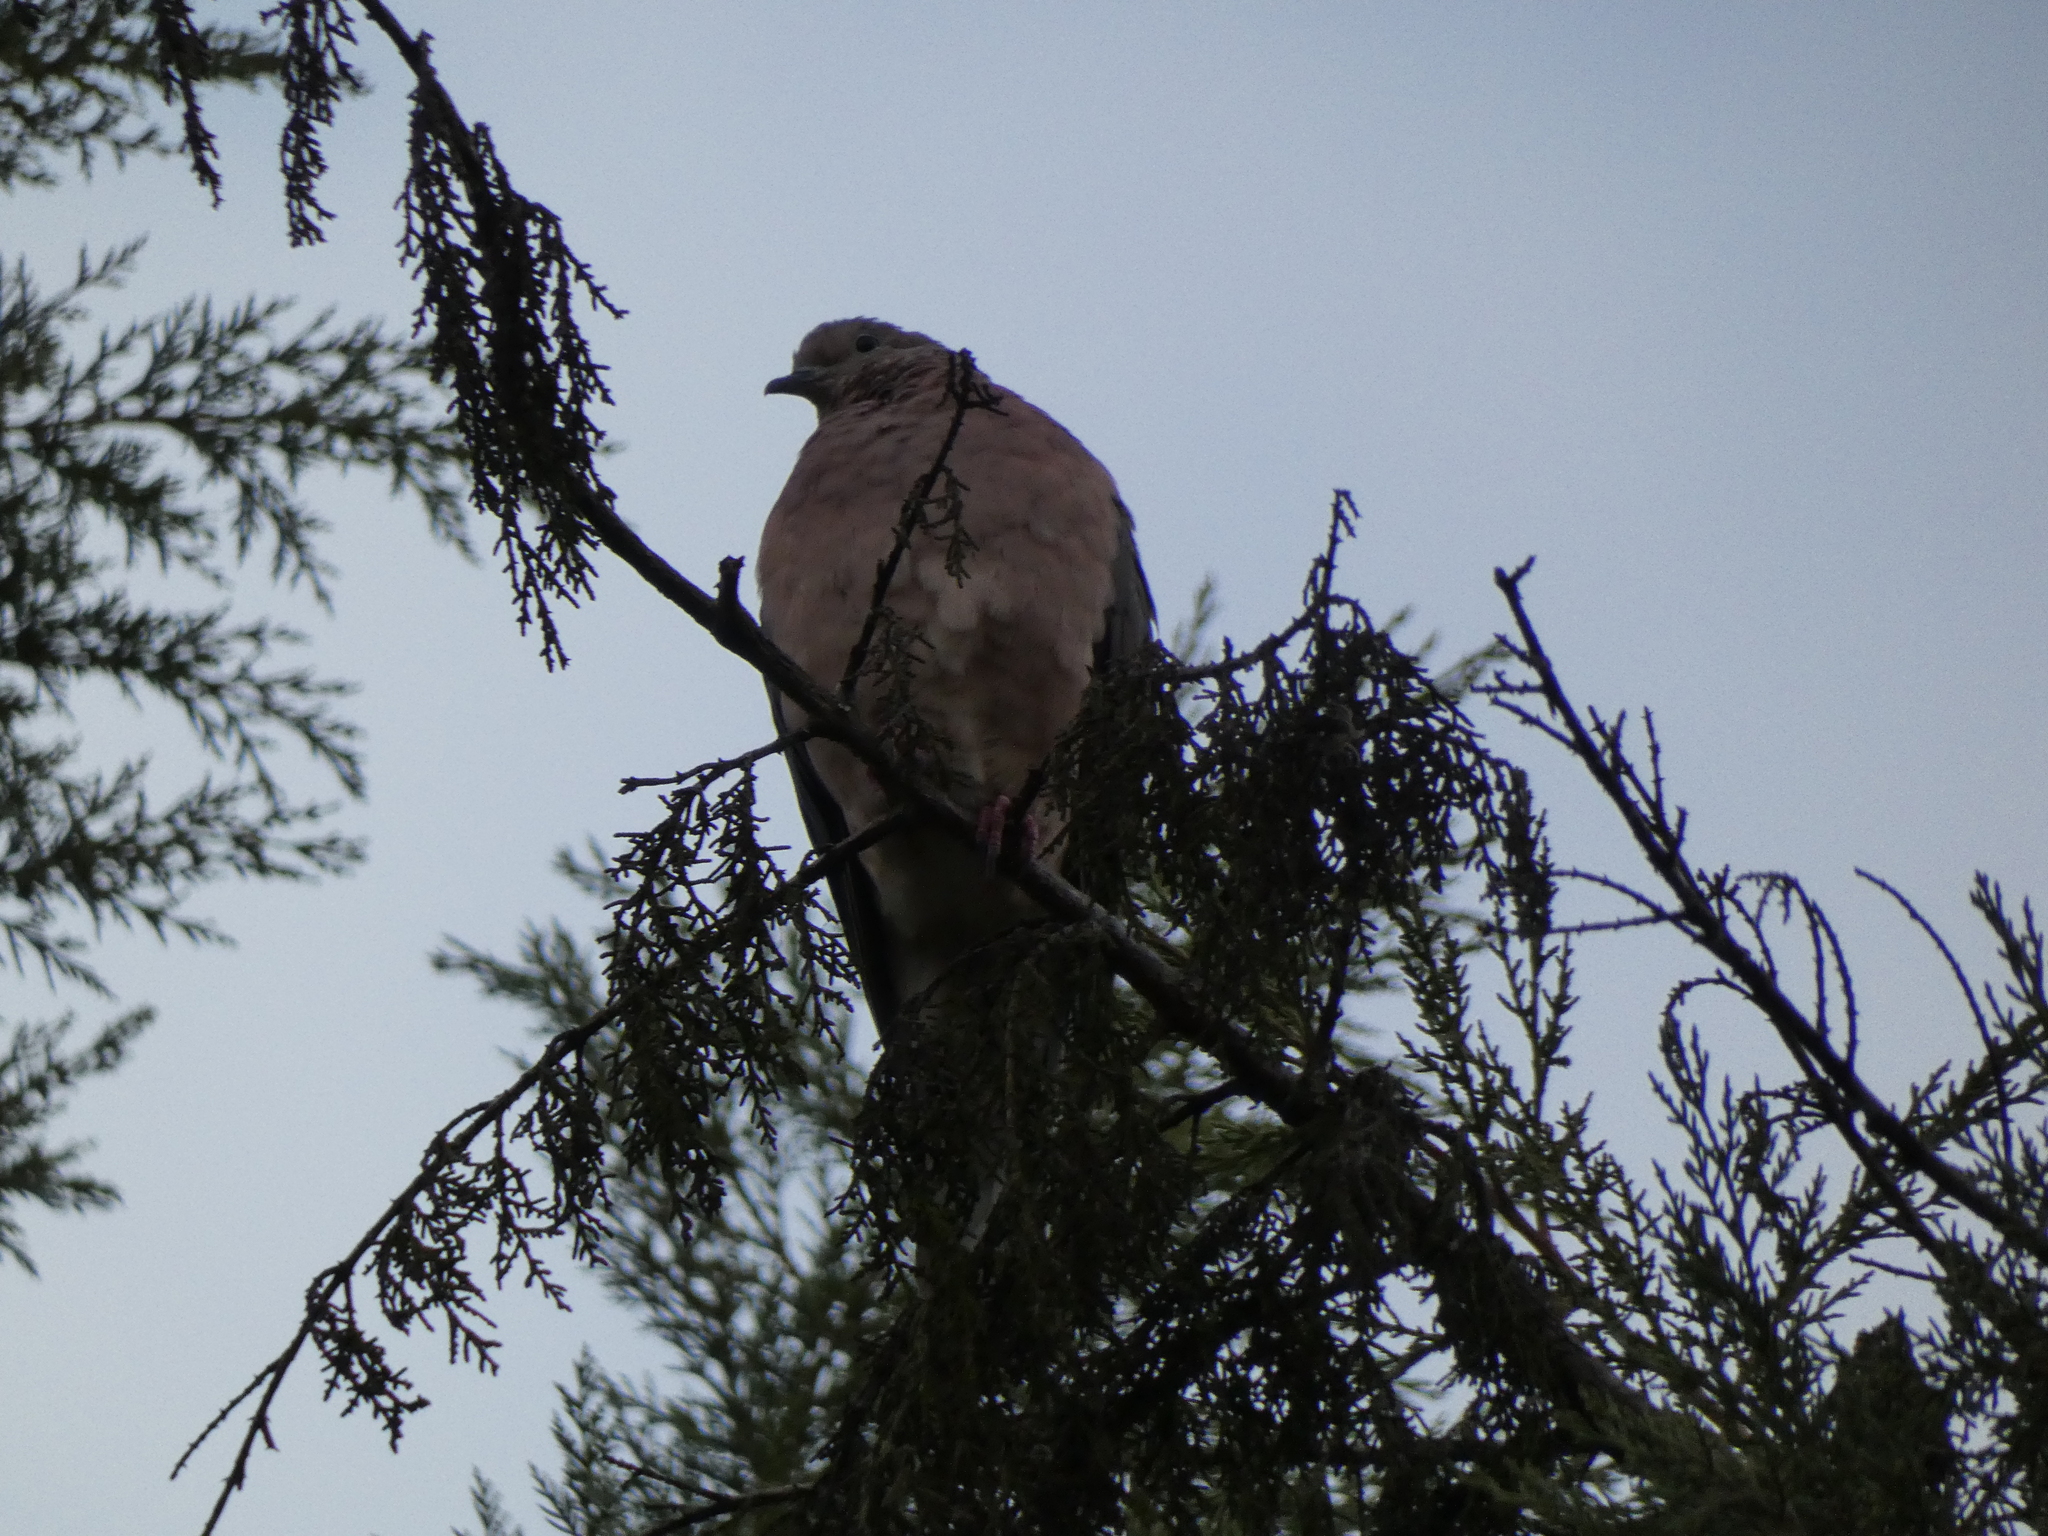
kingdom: Animalia
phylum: Chordata
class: Aves
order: Columbiformes
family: Columbidae
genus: Zenaida
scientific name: Zenaida auriculata
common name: Eared dove
